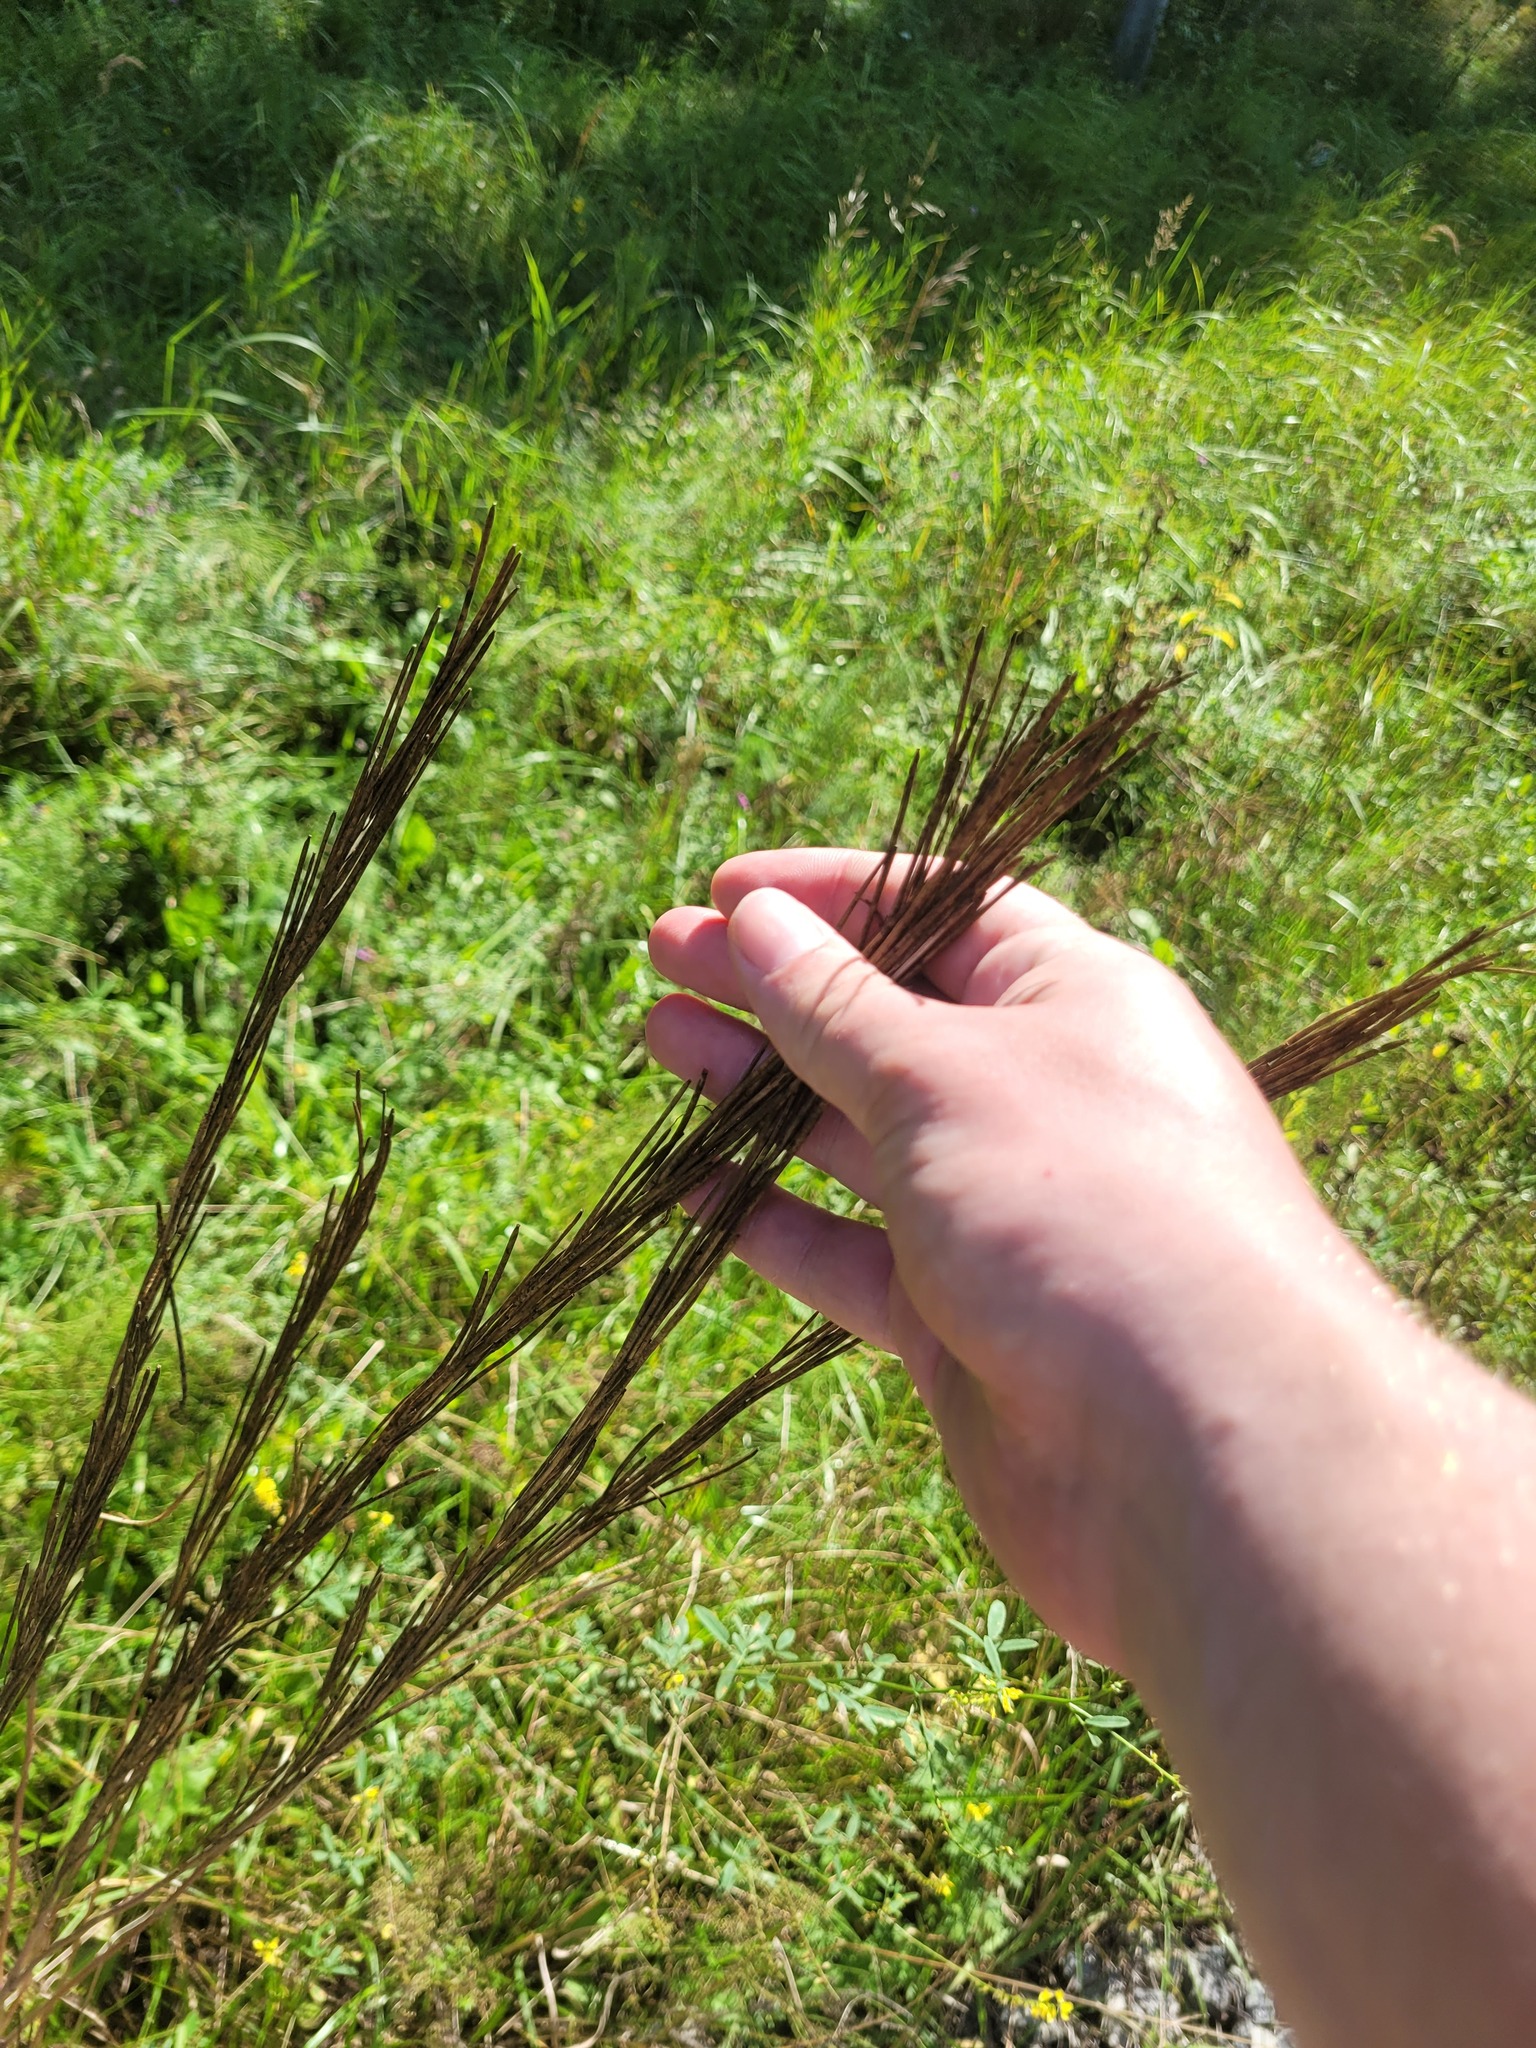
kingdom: Plantae
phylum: Tracheophyta
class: Magnoliopsida
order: Brassicales
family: Brassicaceae
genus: Turritis
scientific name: Turritis glabra
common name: Tower rockcress
